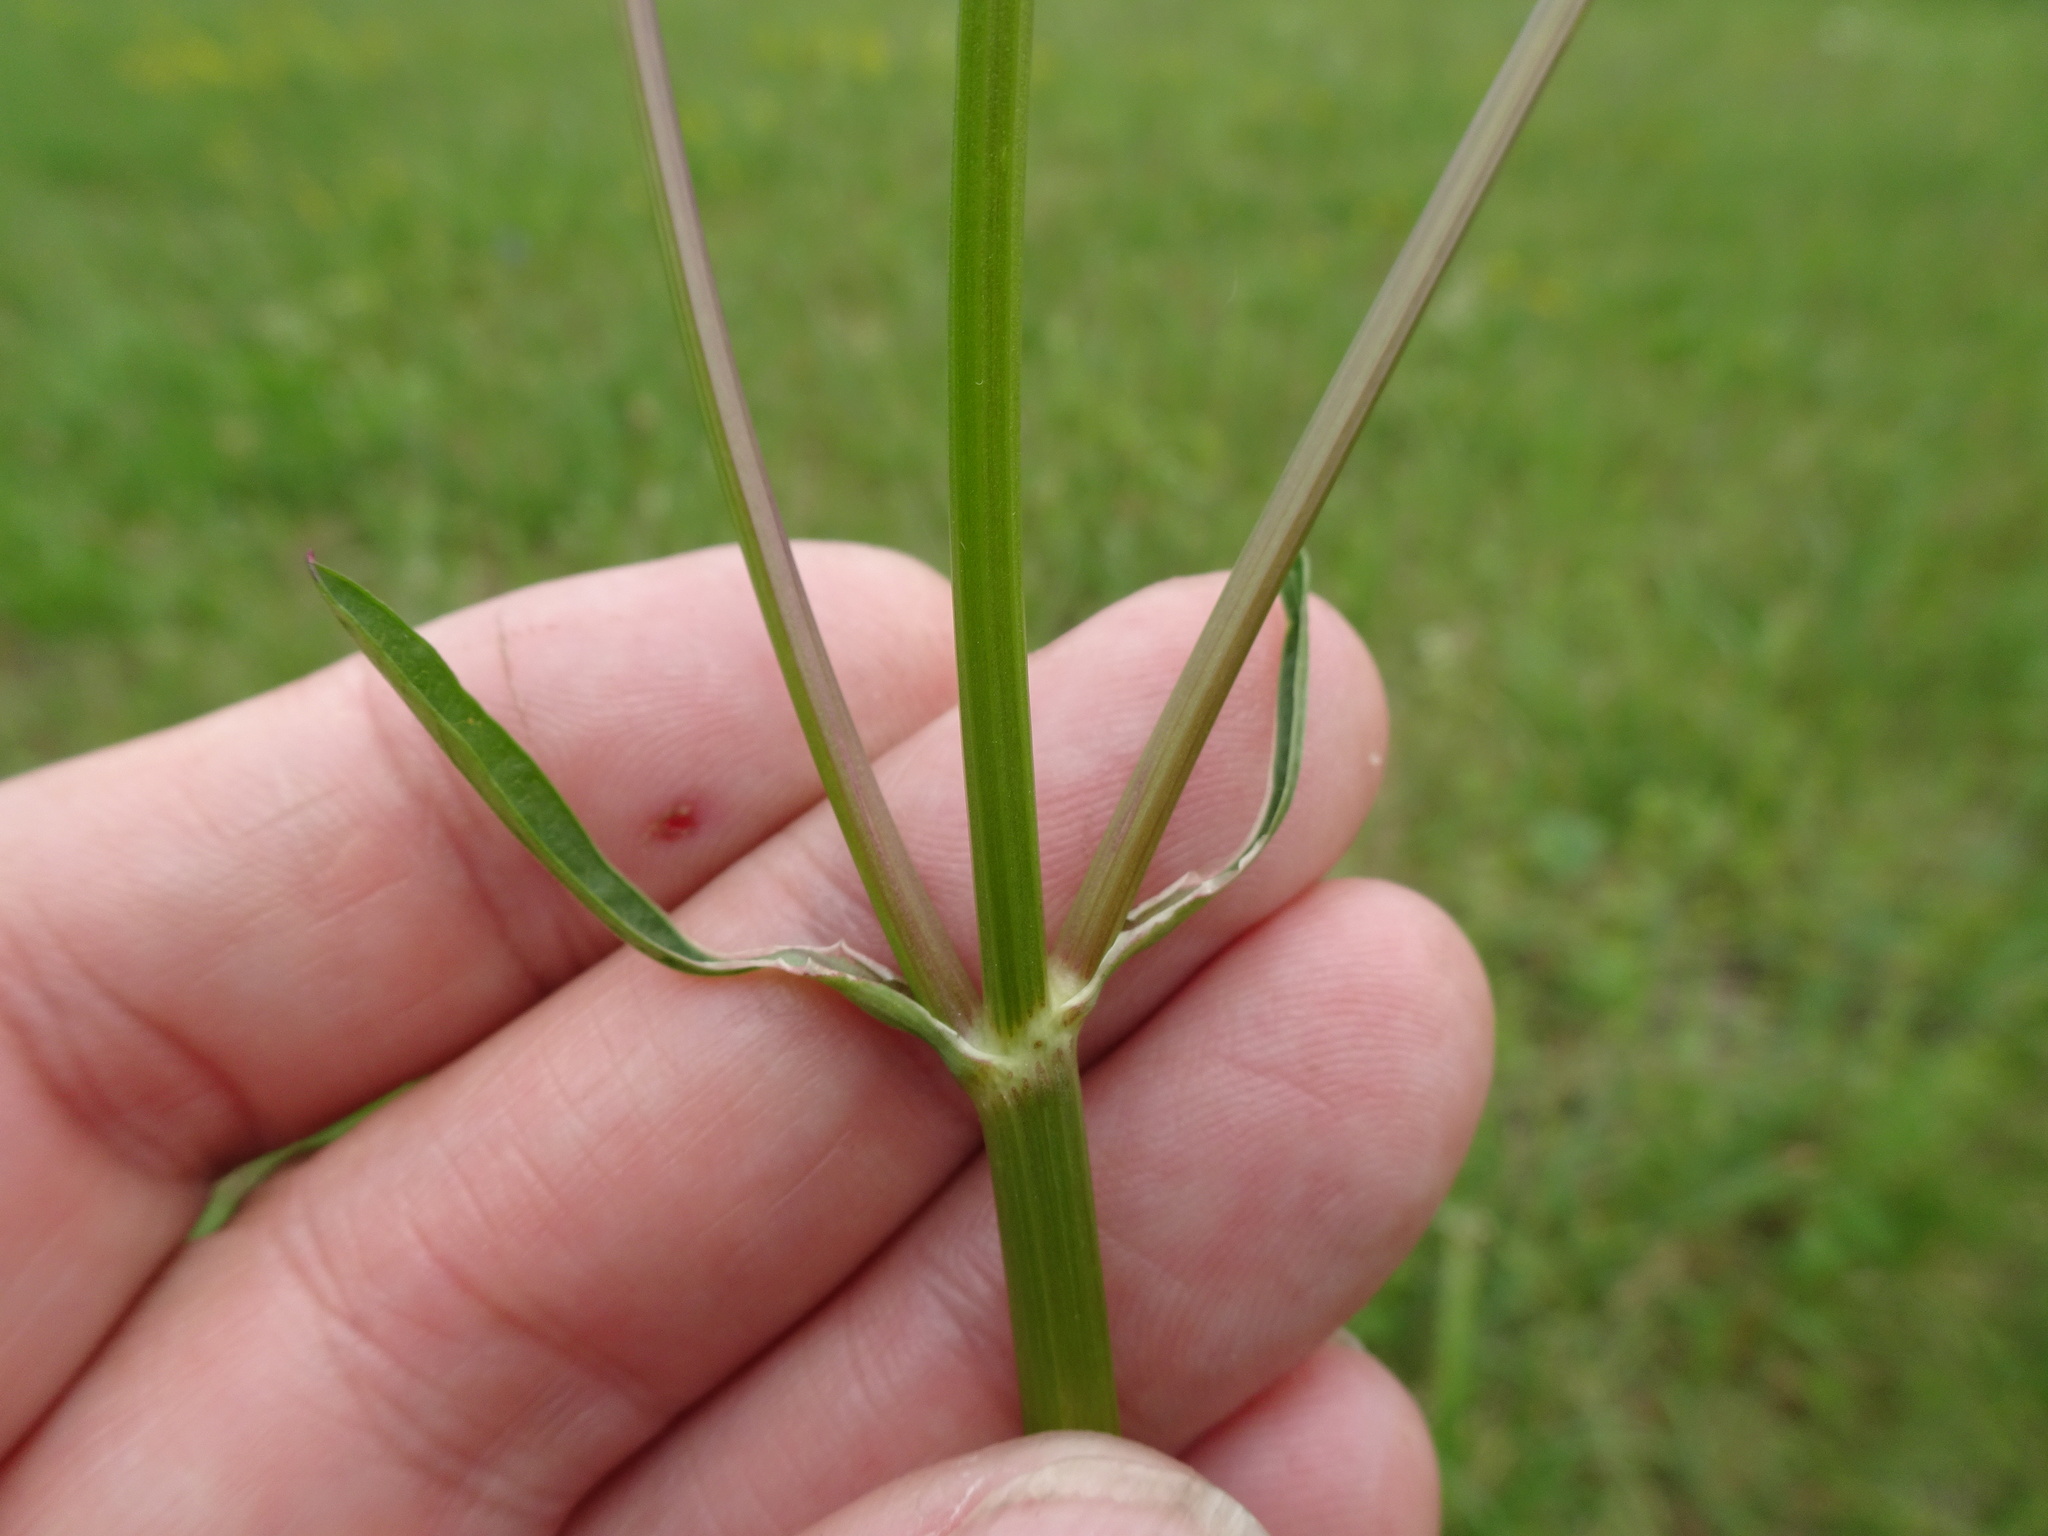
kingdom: Plantae
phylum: Tracheophyta
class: Magnoliopsida
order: Apiales
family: Apiaceae
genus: Silaum
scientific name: Silaum silaus
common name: Pepper-saxifrage
